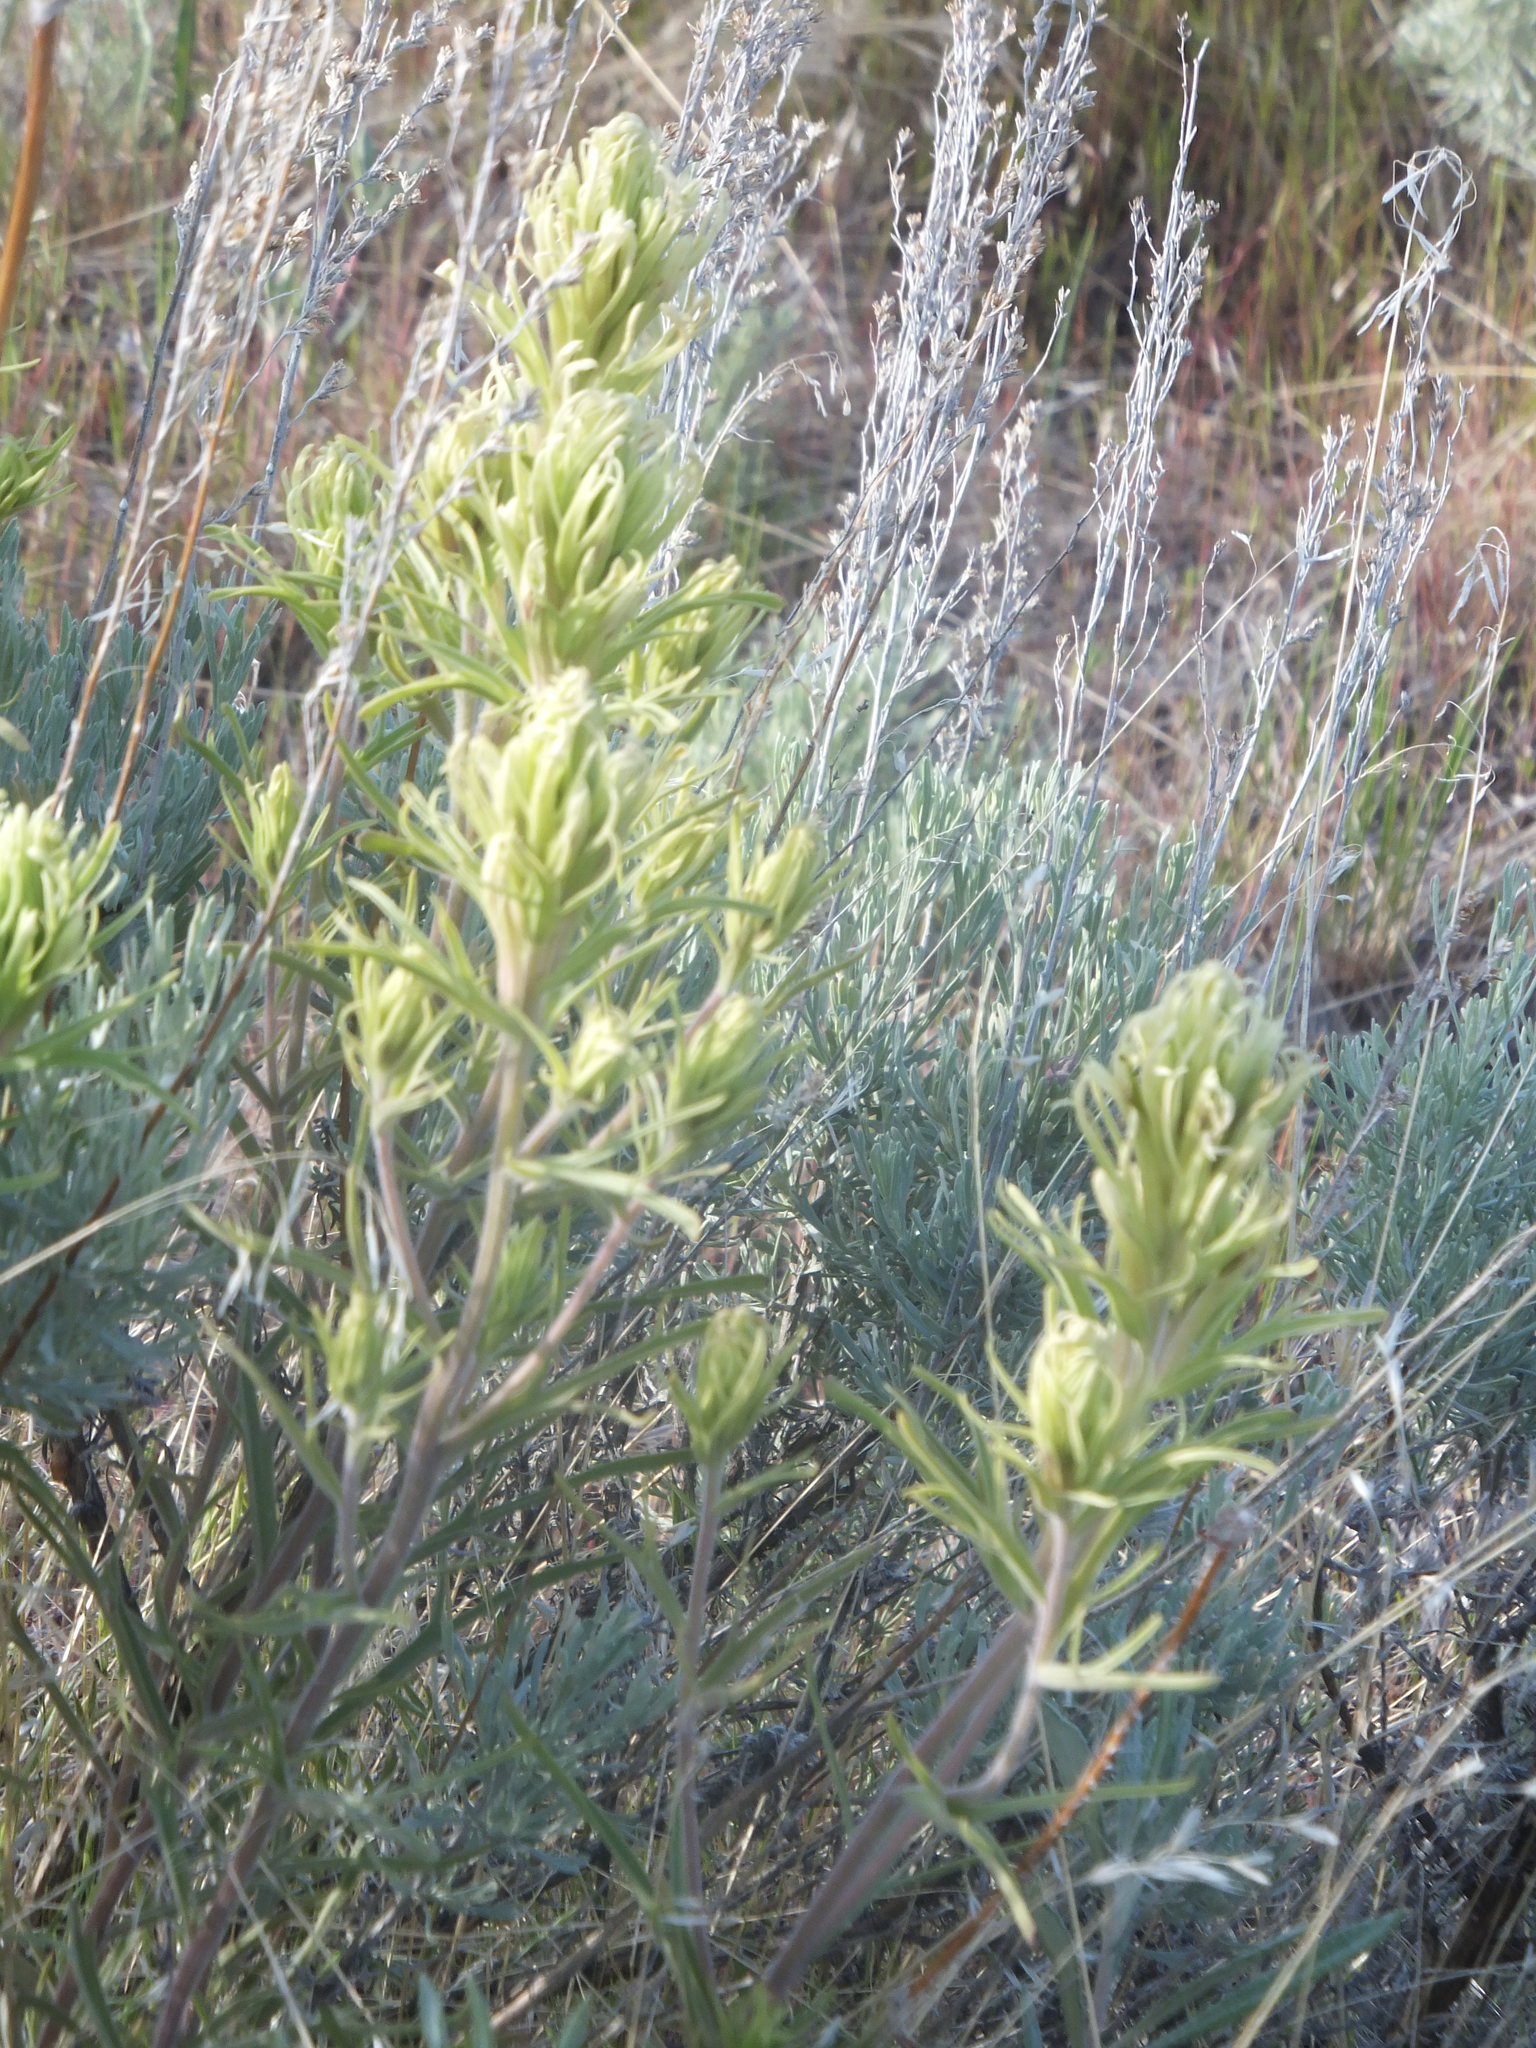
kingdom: Plantae
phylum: Tracheophyta
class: Magnoliopsida
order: Lamiales
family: Orobanchaceae
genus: Castilleja
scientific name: Castilleja thompsonii
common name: Thompson's paintbrush
